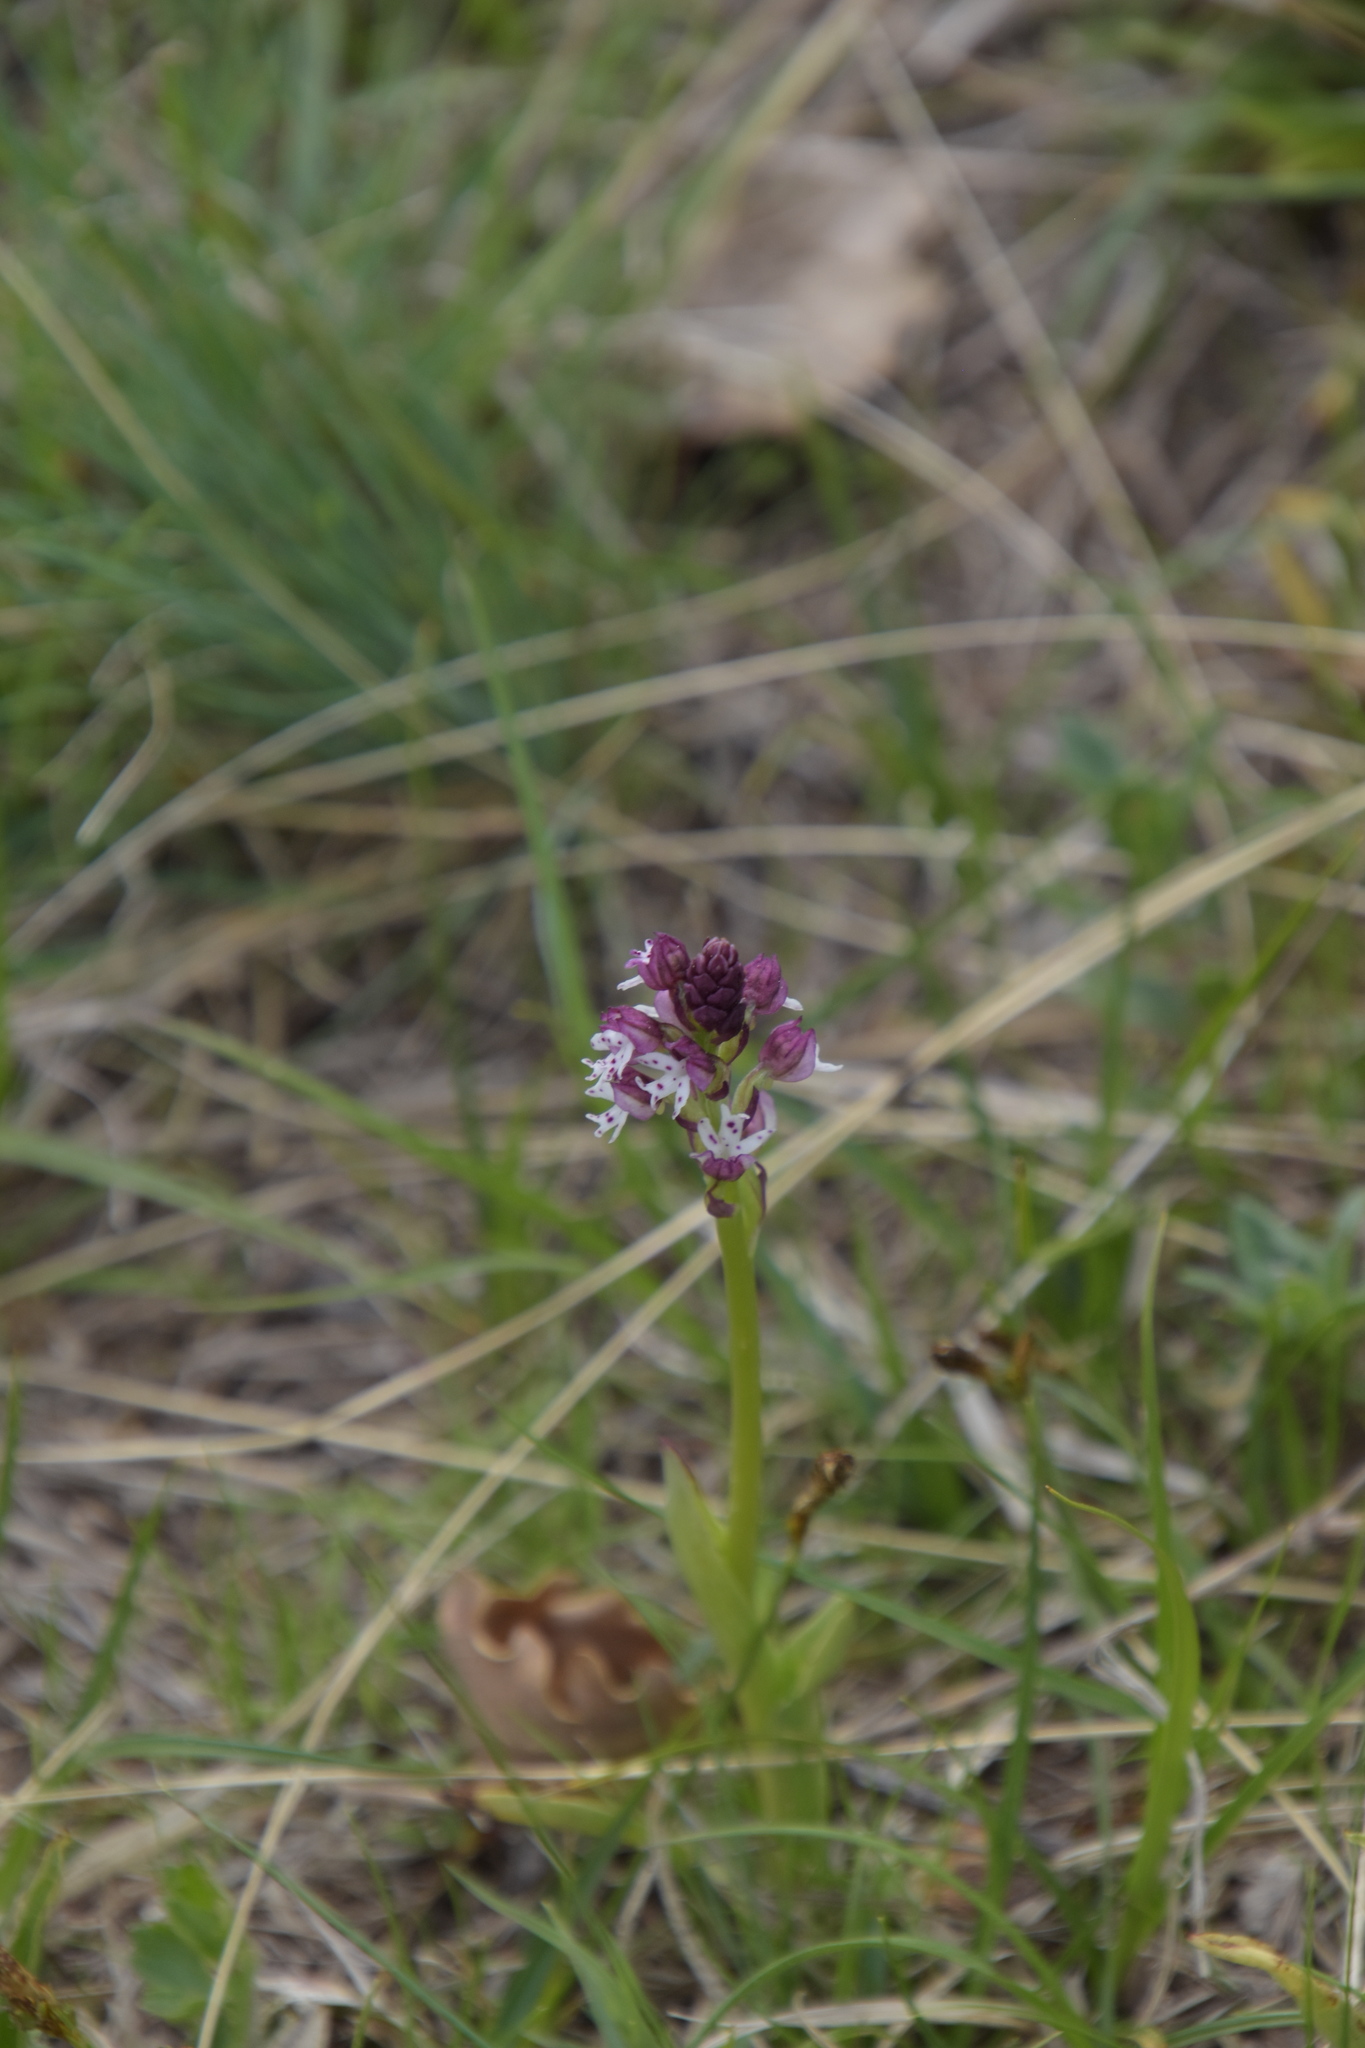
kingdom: Plantae
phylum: Tracheophyta
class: Liliopsida
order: Asparagales
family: Orchidaceae
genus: Neotinea
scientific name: Neotinea ustulata
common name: Burnt orchid
